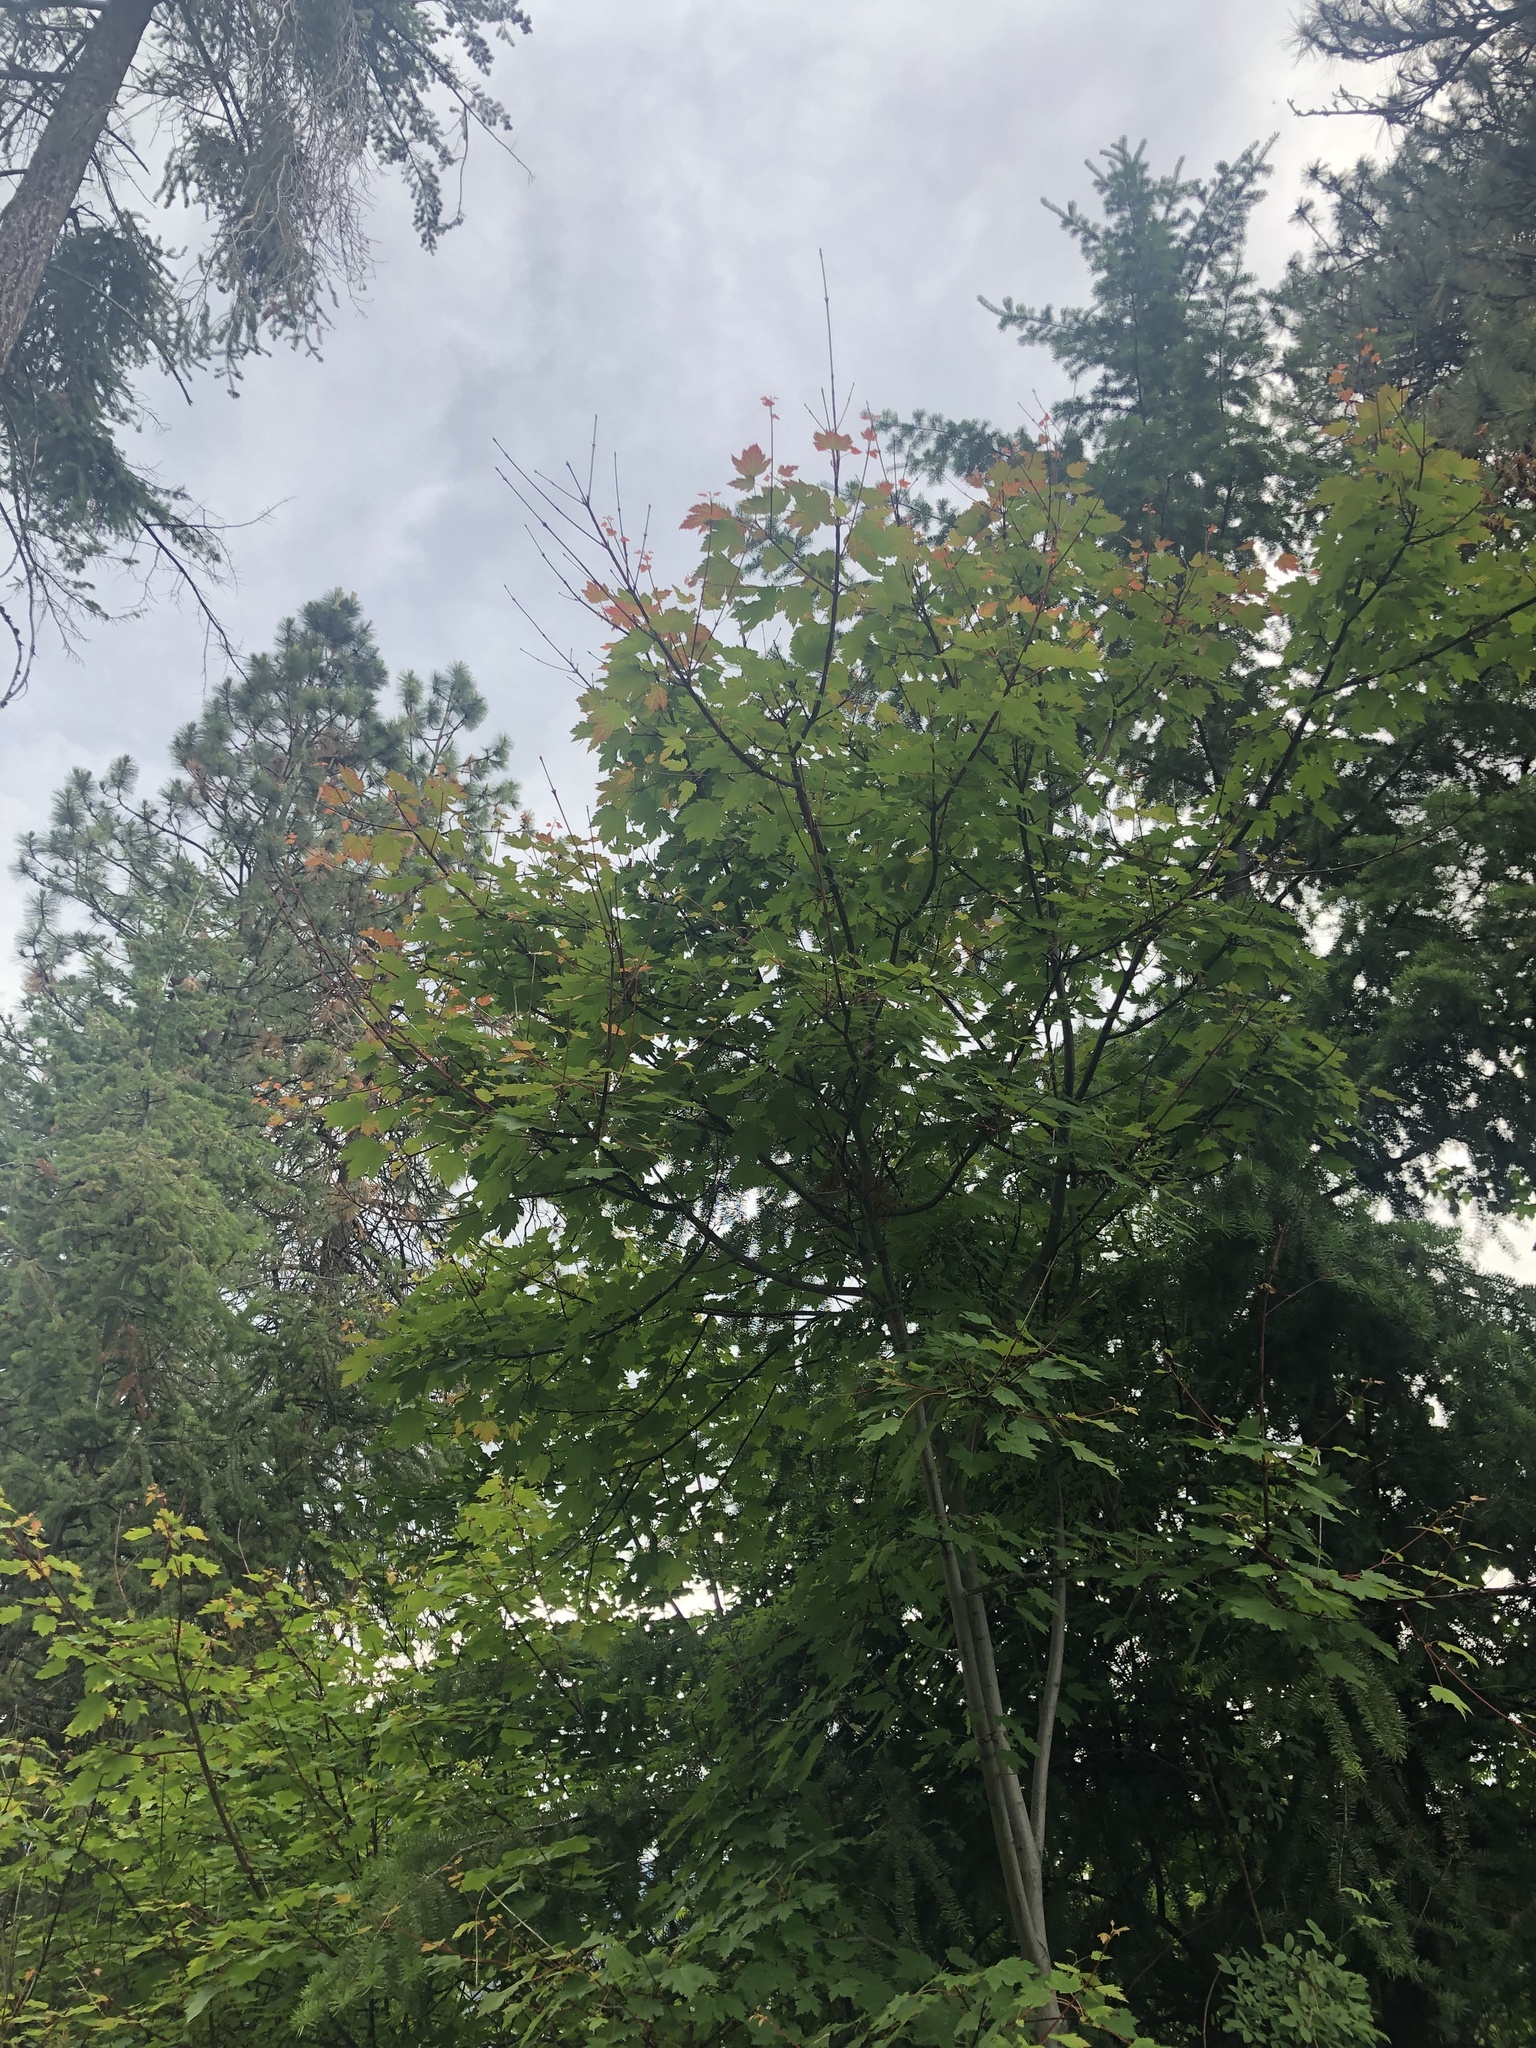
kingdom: Plantae
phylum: Tracheophyta
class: Magnoliopsida
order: Sapindales
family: Sapindaceae
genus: Acer
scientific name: Acer glabrum
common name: Rocky mountain maple
